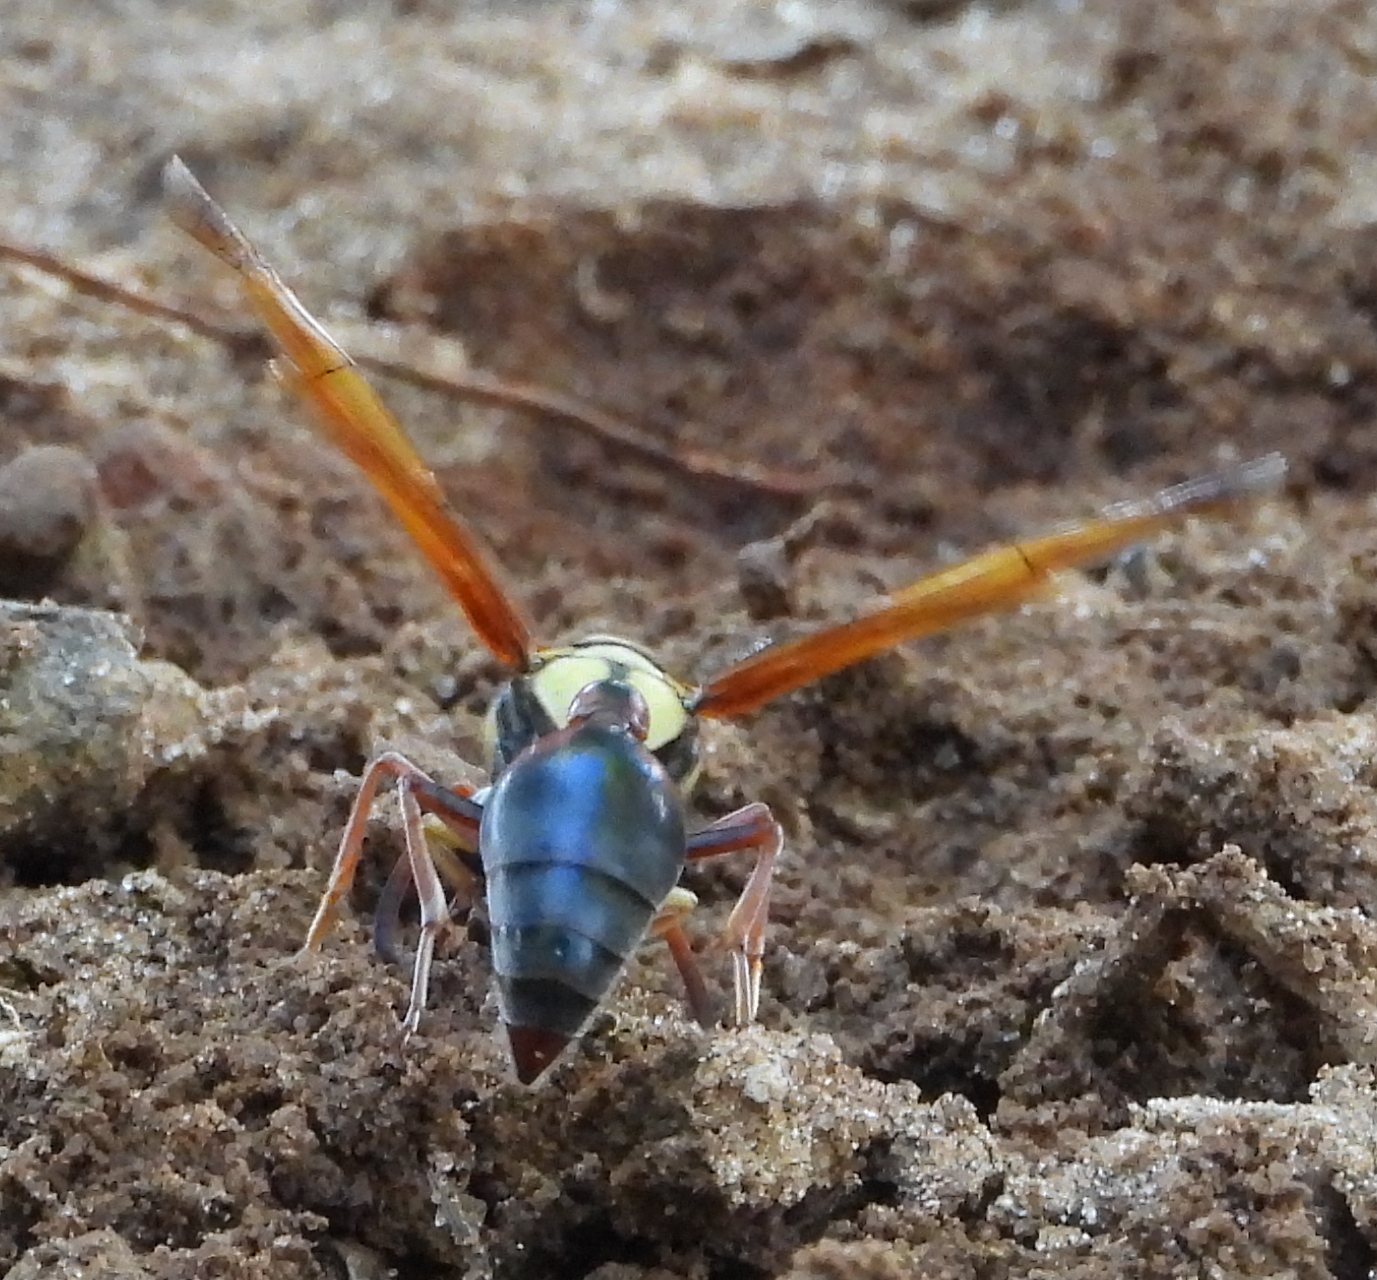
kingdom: Animalia
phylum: Arthropoda
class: Insecta
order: Hymenoptera
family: Eumenidae
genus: Delta
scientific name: Delta tropicale
